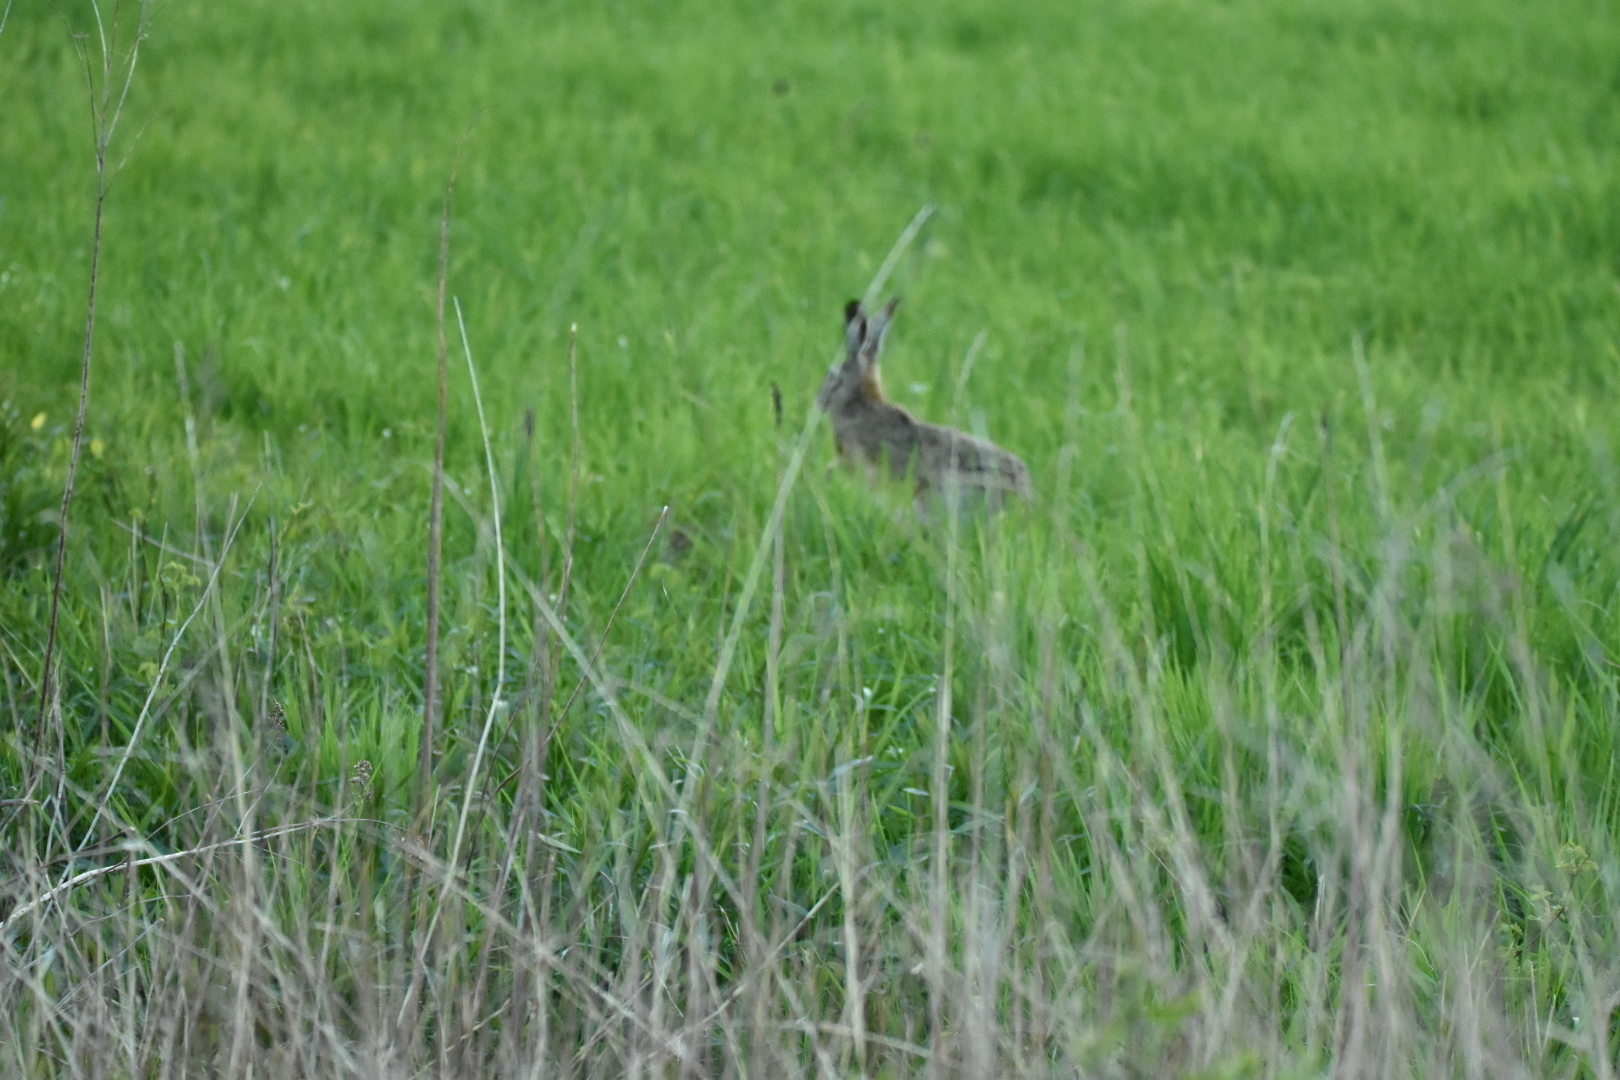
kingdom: Animalia
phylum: Chordata
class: Mammalia
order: Lagomorpha
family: Leporidae
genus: Lepus
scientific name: Lepus europaeus
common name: European hare
